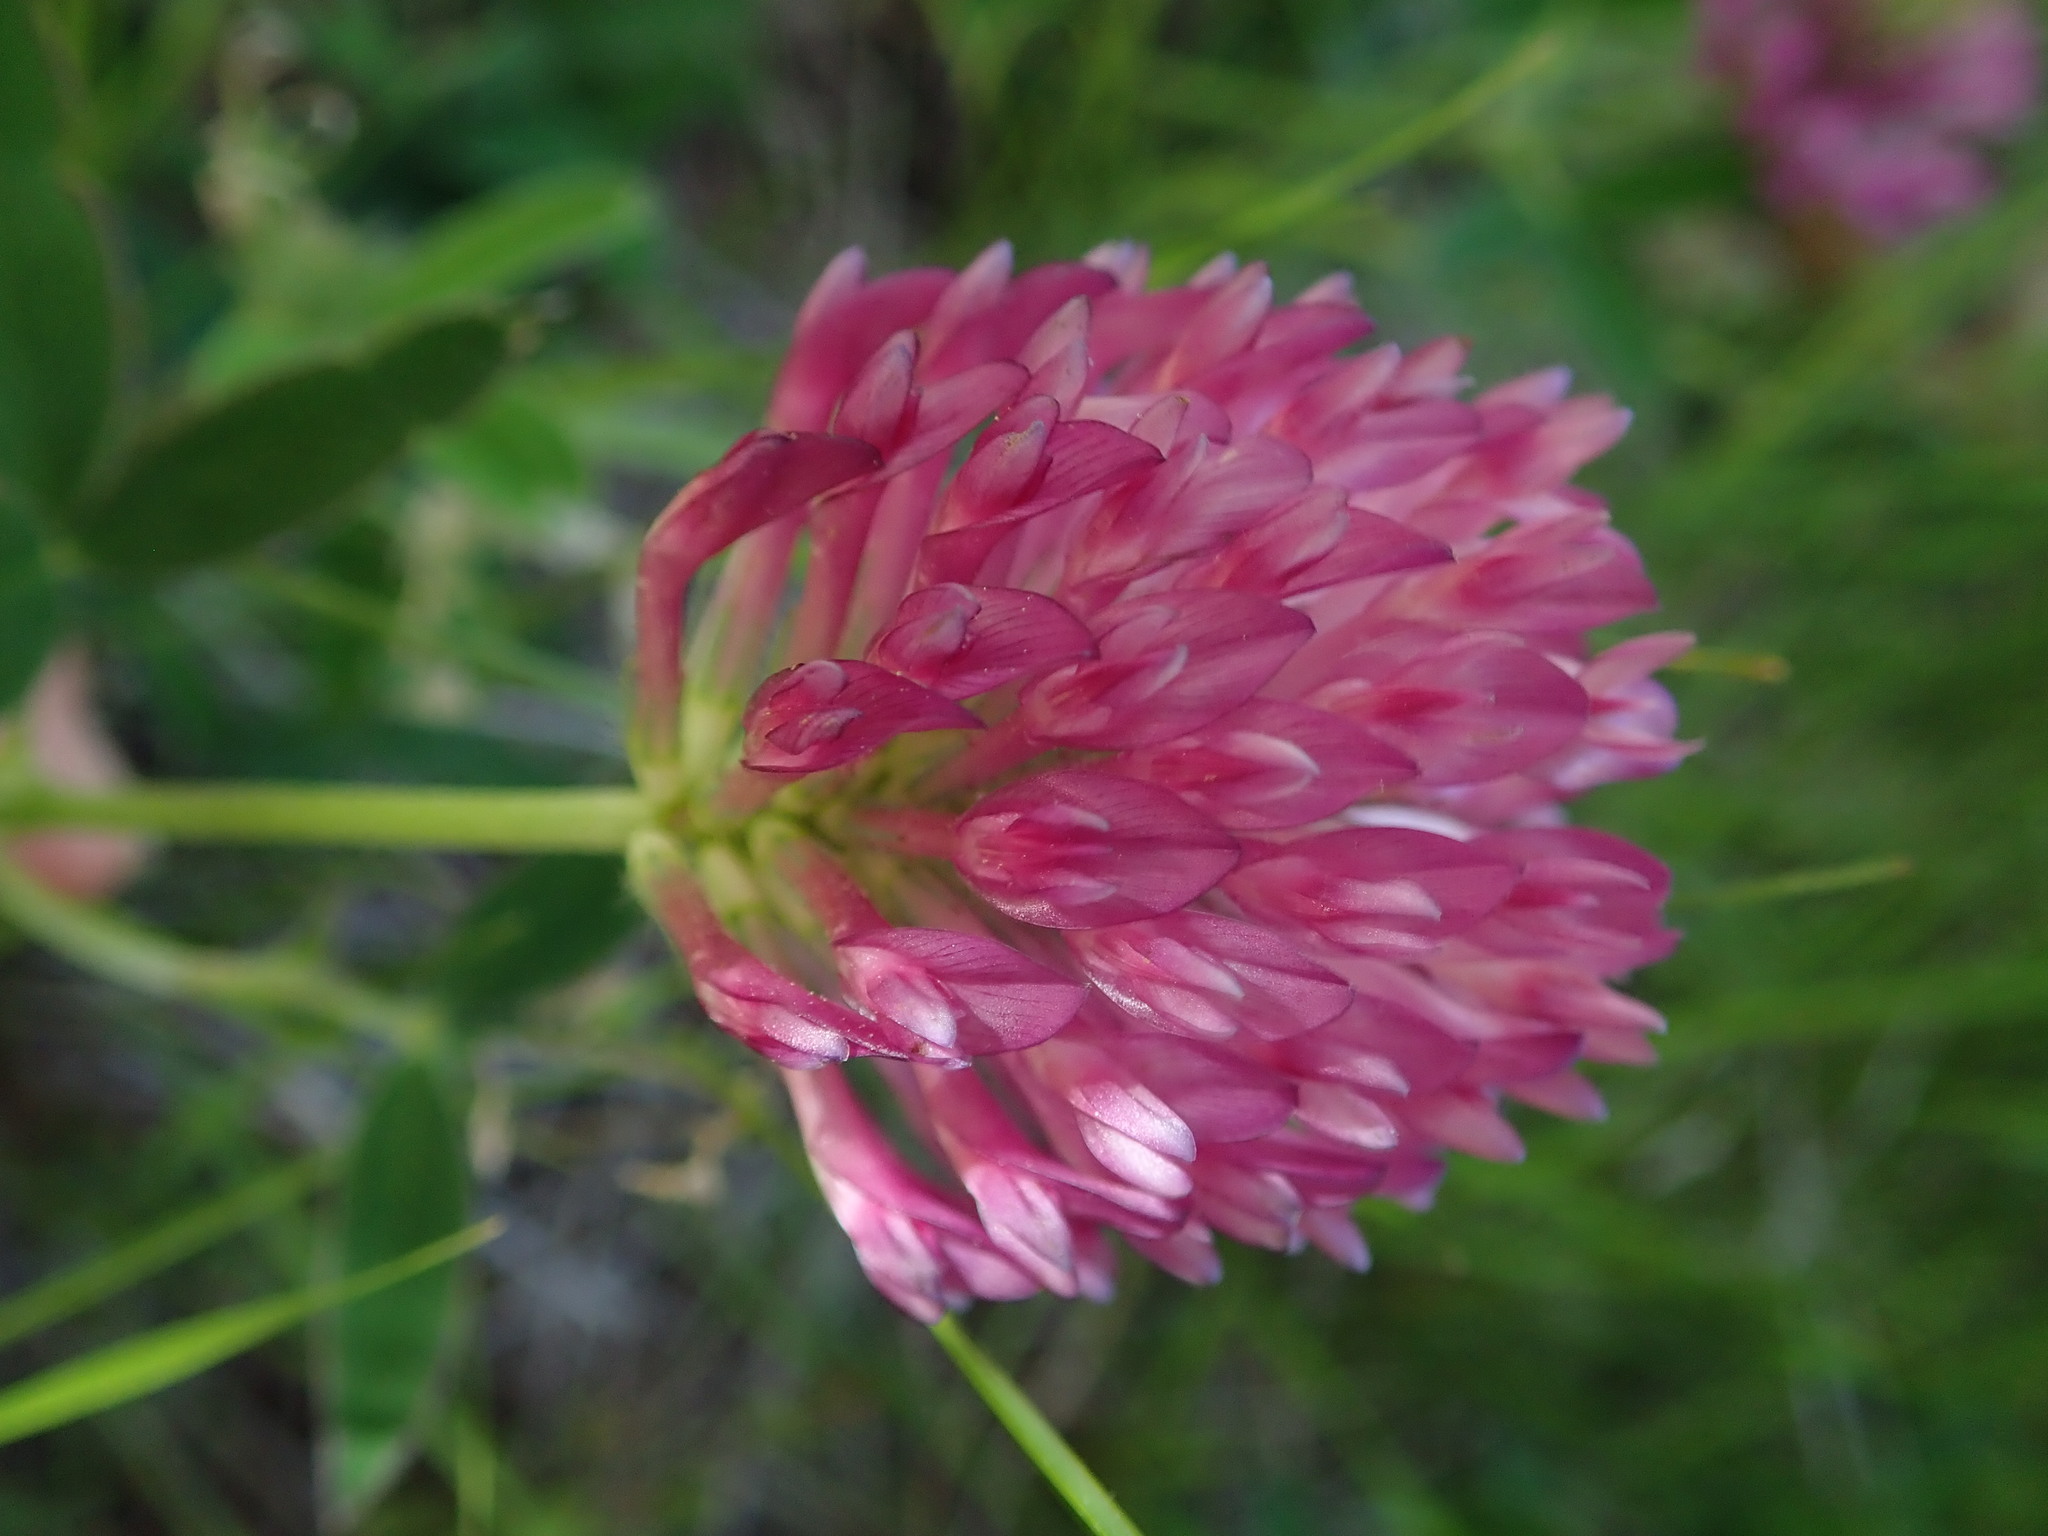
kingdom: Plantae
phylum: Tracheophyta
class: Magnoliopsida
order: Fabales
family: Fabaceae
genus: Trifolium
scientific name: Trifolium pratense
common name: Red clover
